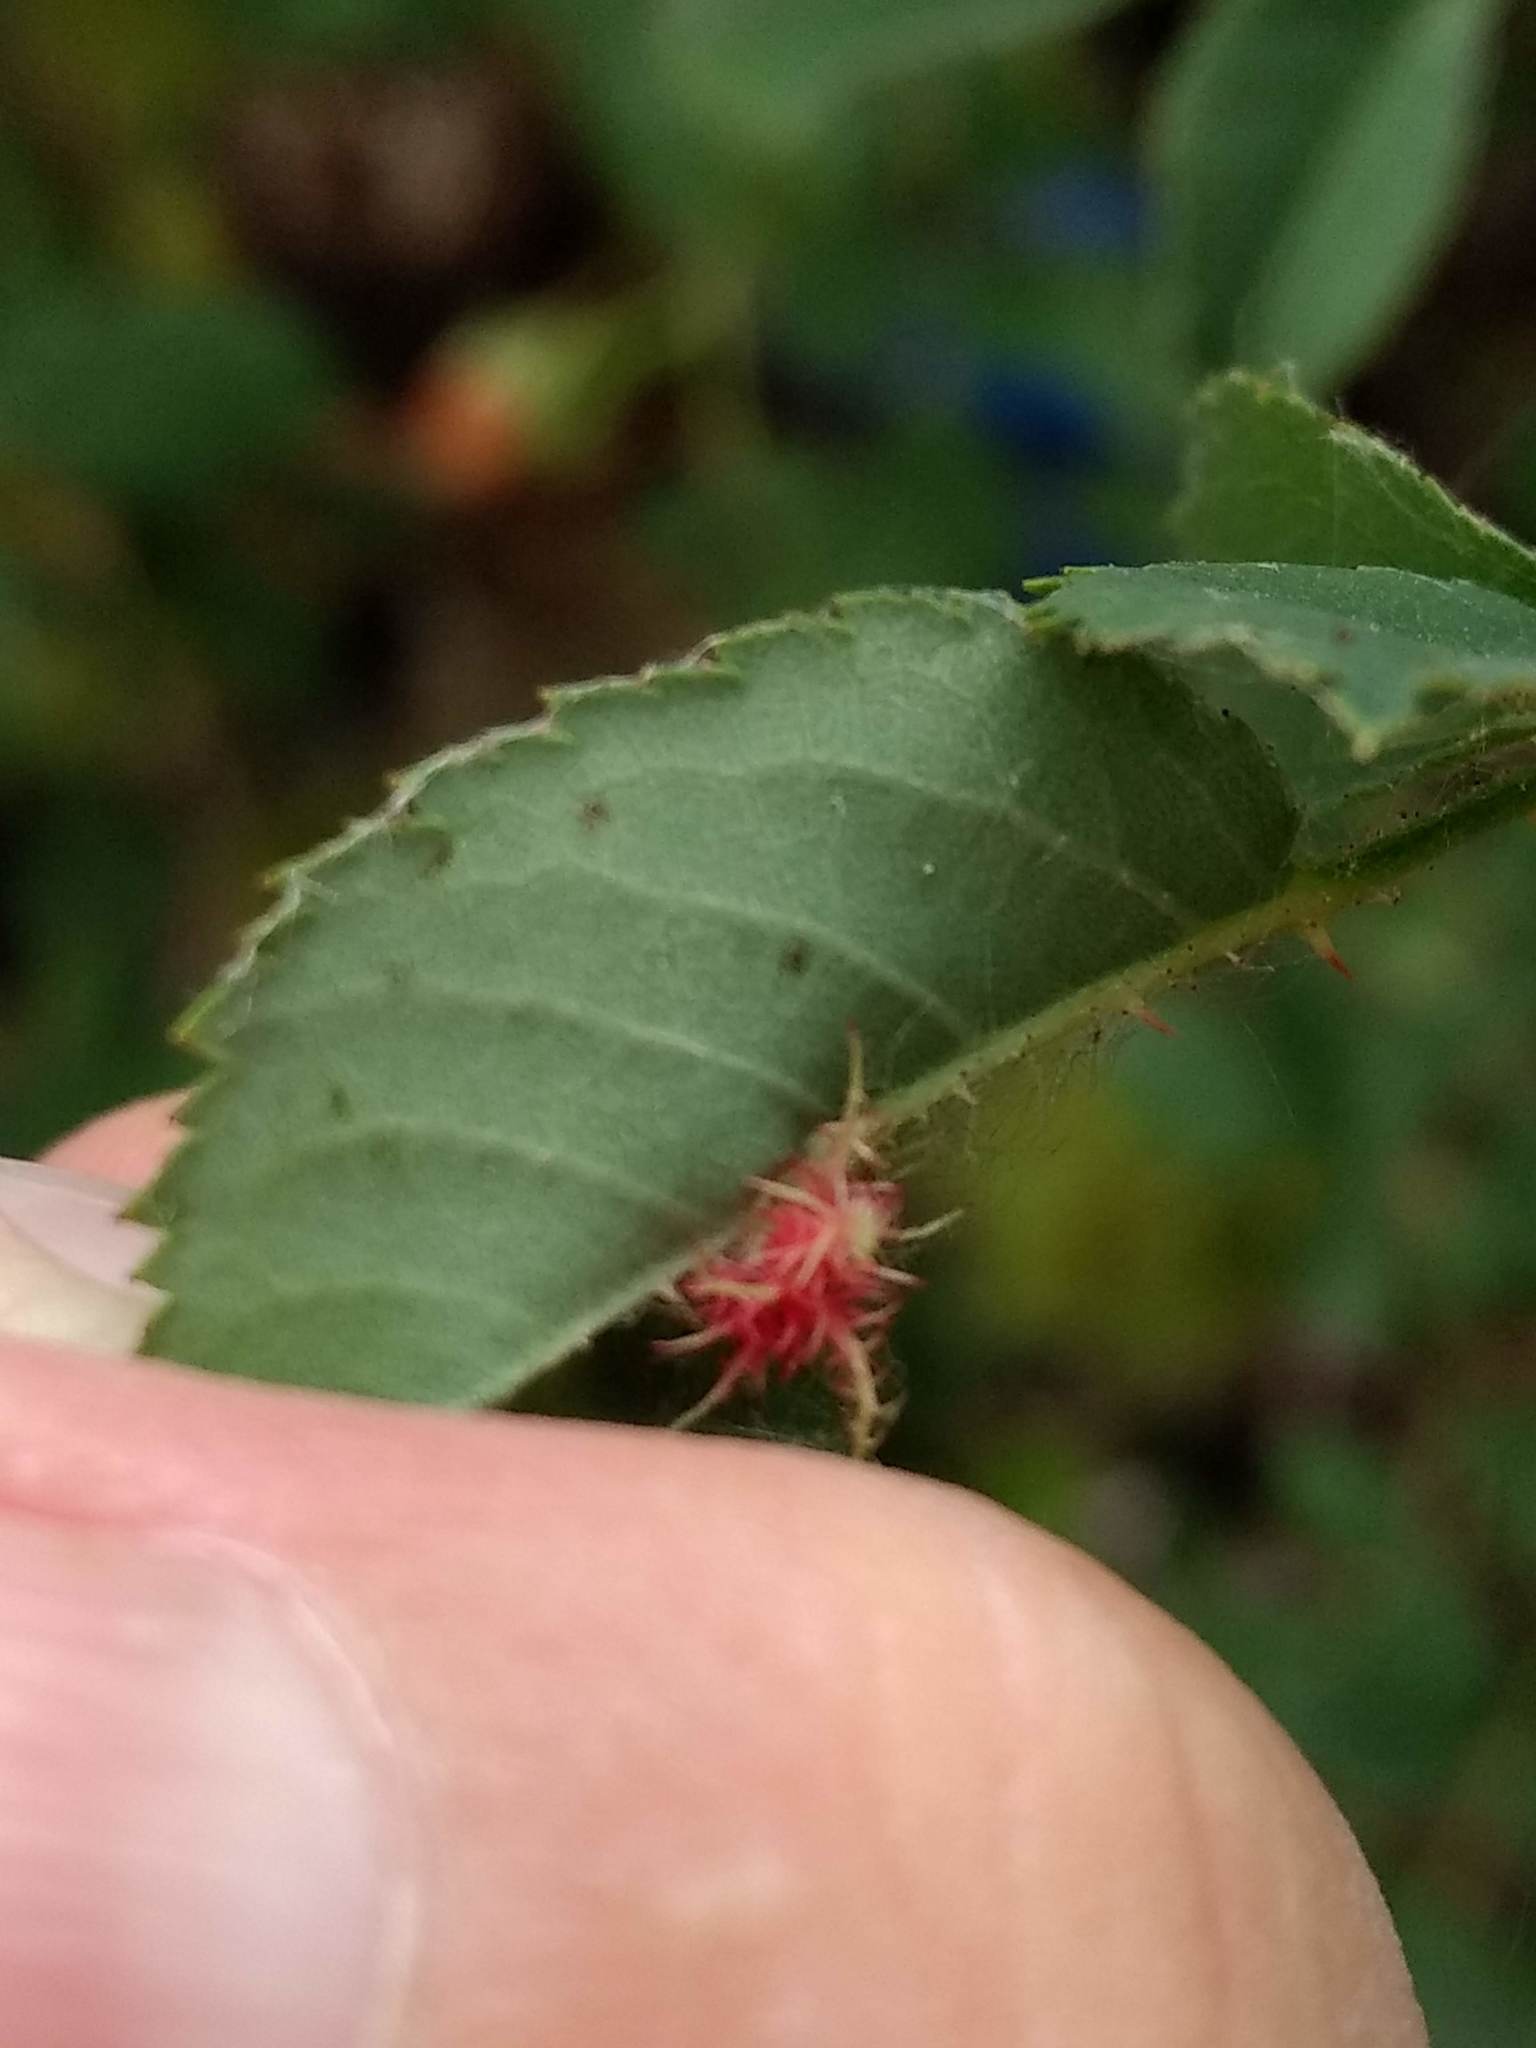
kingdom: Animalia
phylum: Arthropoda
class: Insecta
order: Hymenoptera
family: Cynipidae
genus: Diplolepis
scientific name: Diplolepis rosae
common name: Bedeguar gall
